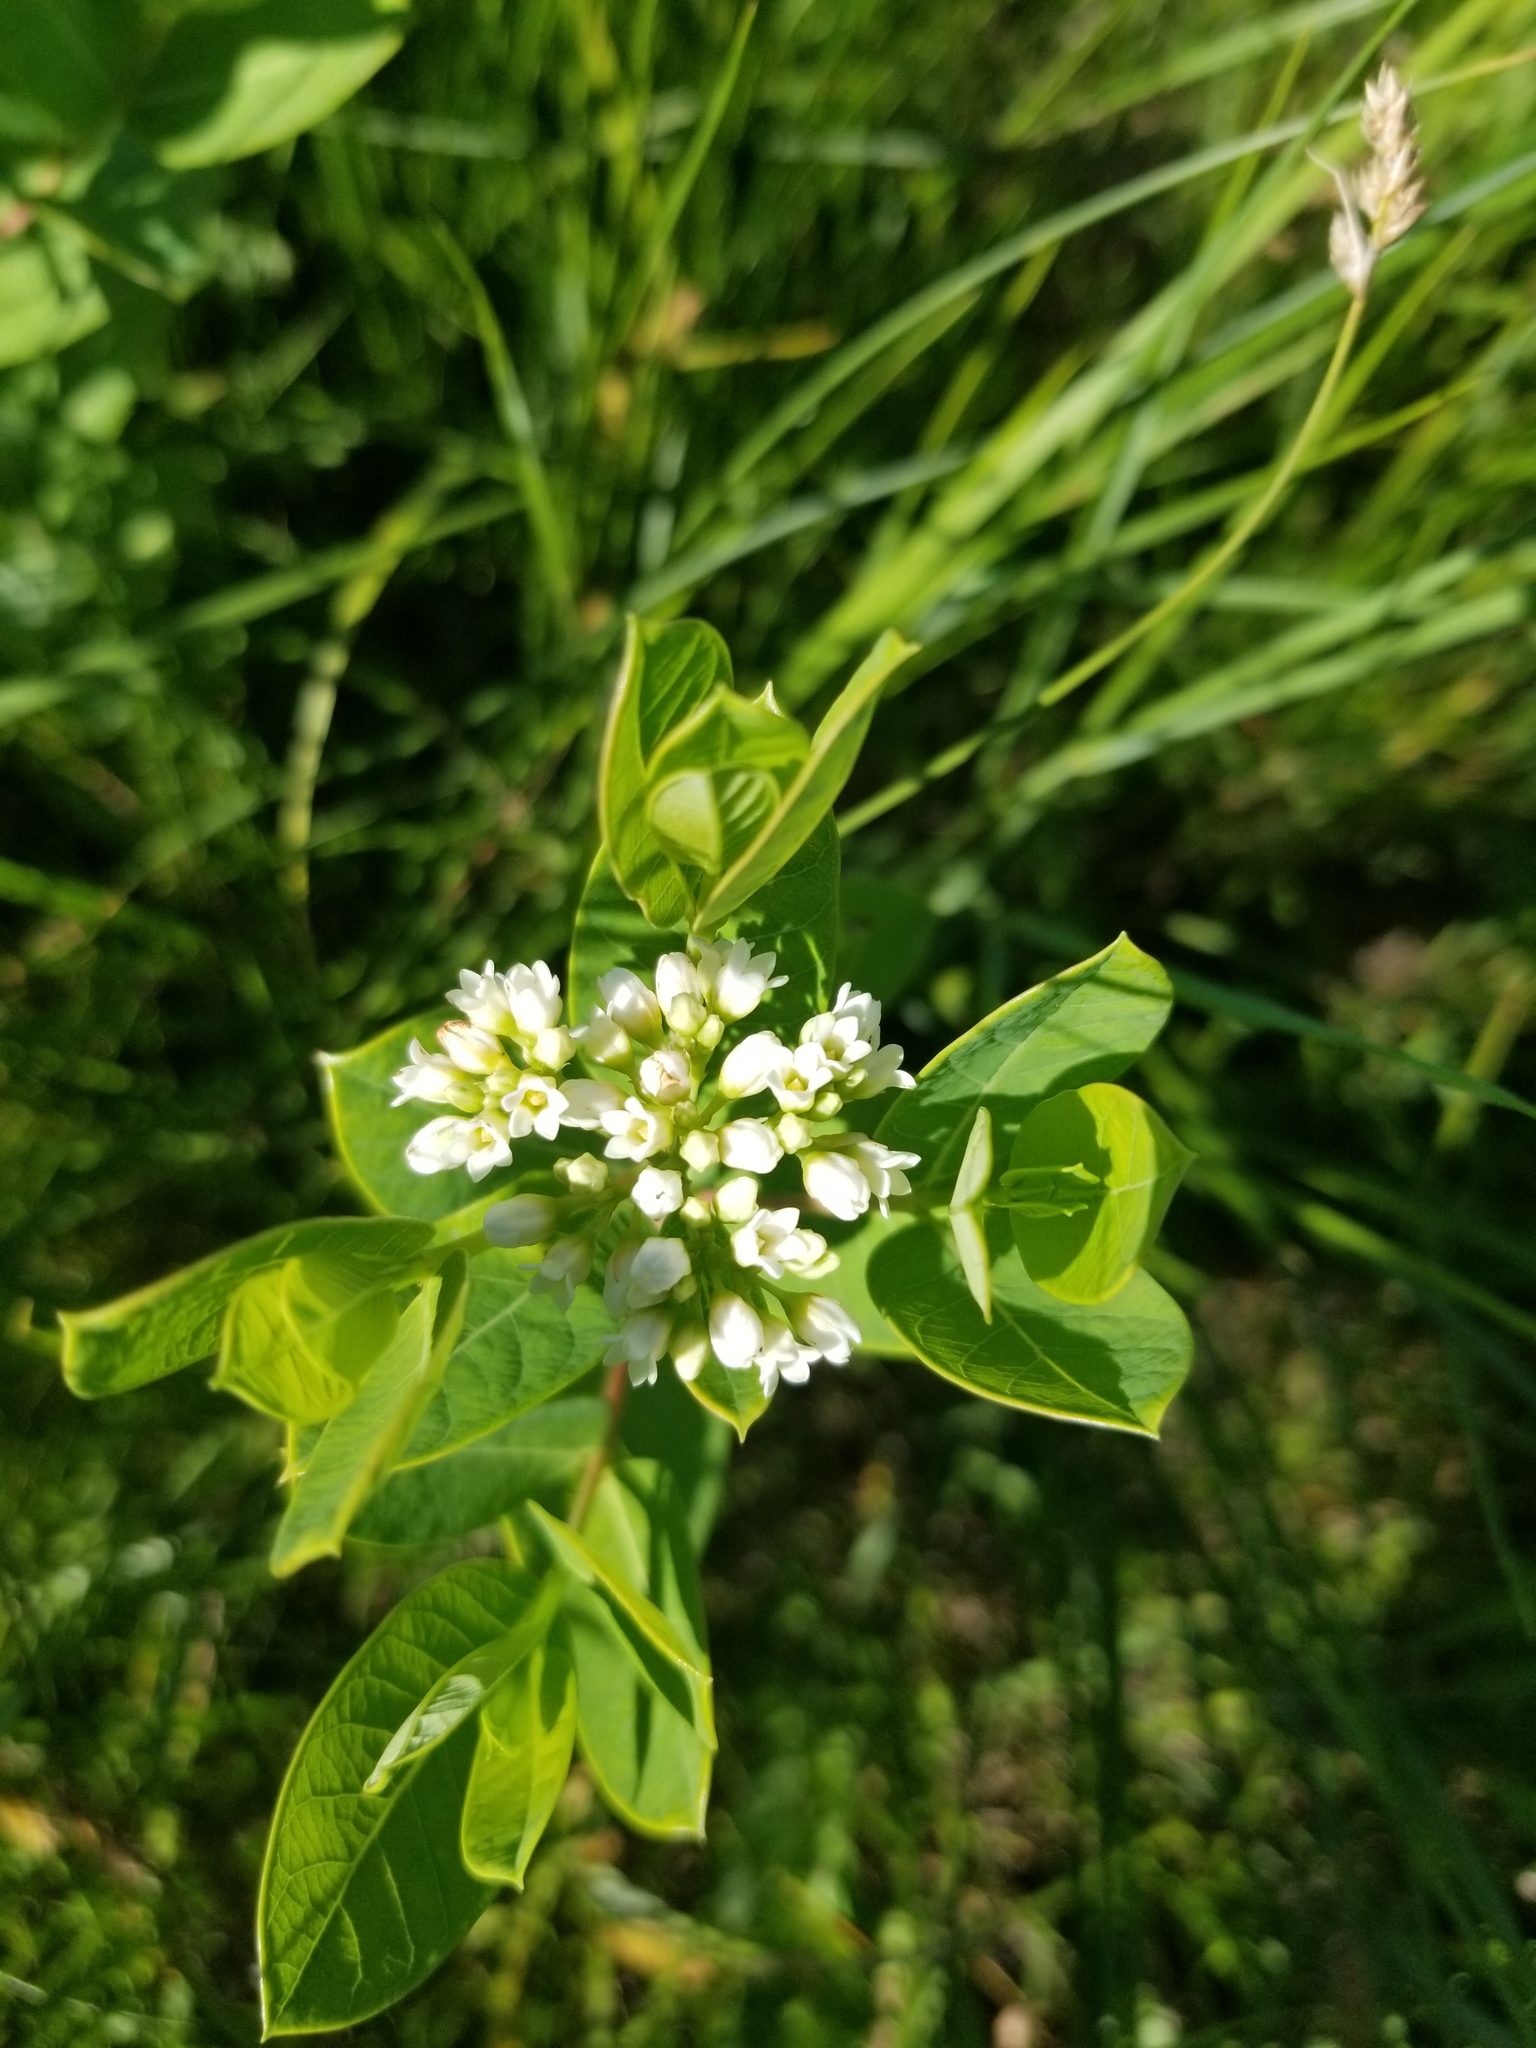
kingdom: Plantae
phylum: Tracheophyta
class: Magnoliopsida
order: Gentianales
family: Apocynaceae
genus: Apocynum
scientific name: Apocynum cannabinum
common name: Hemp dogbane
